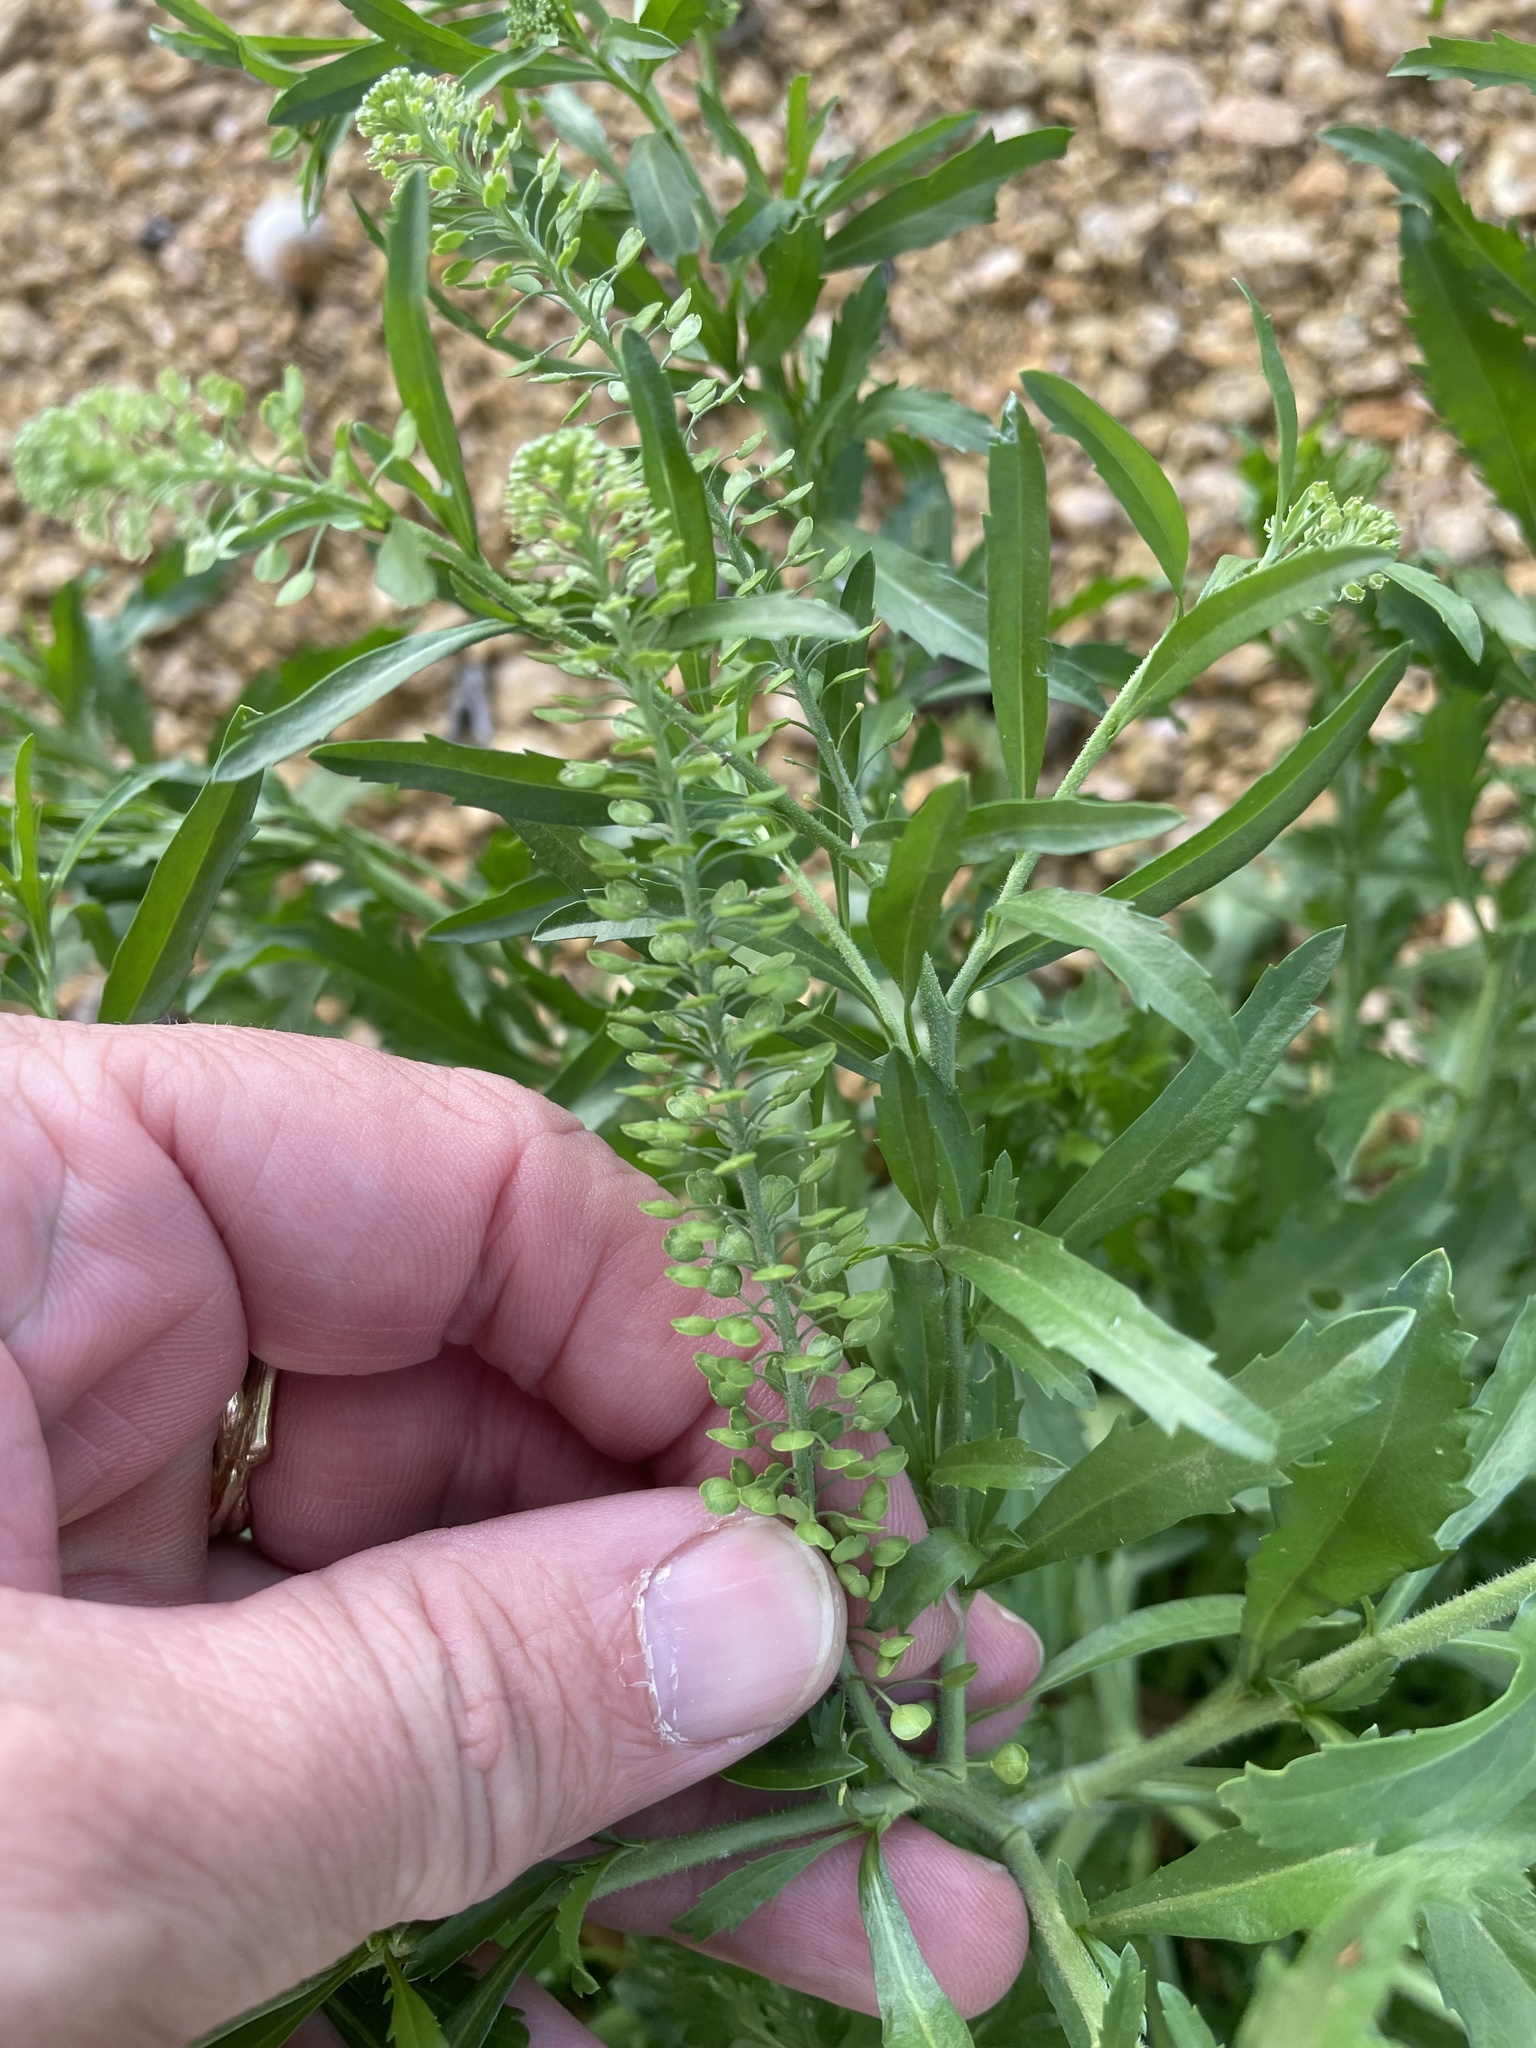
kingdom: Plantae
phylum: Tracheophyta
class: Magnoliopsida
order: Brassicales
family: Brassicaceae
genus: Lepidium
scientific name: Lepidium austrinum
